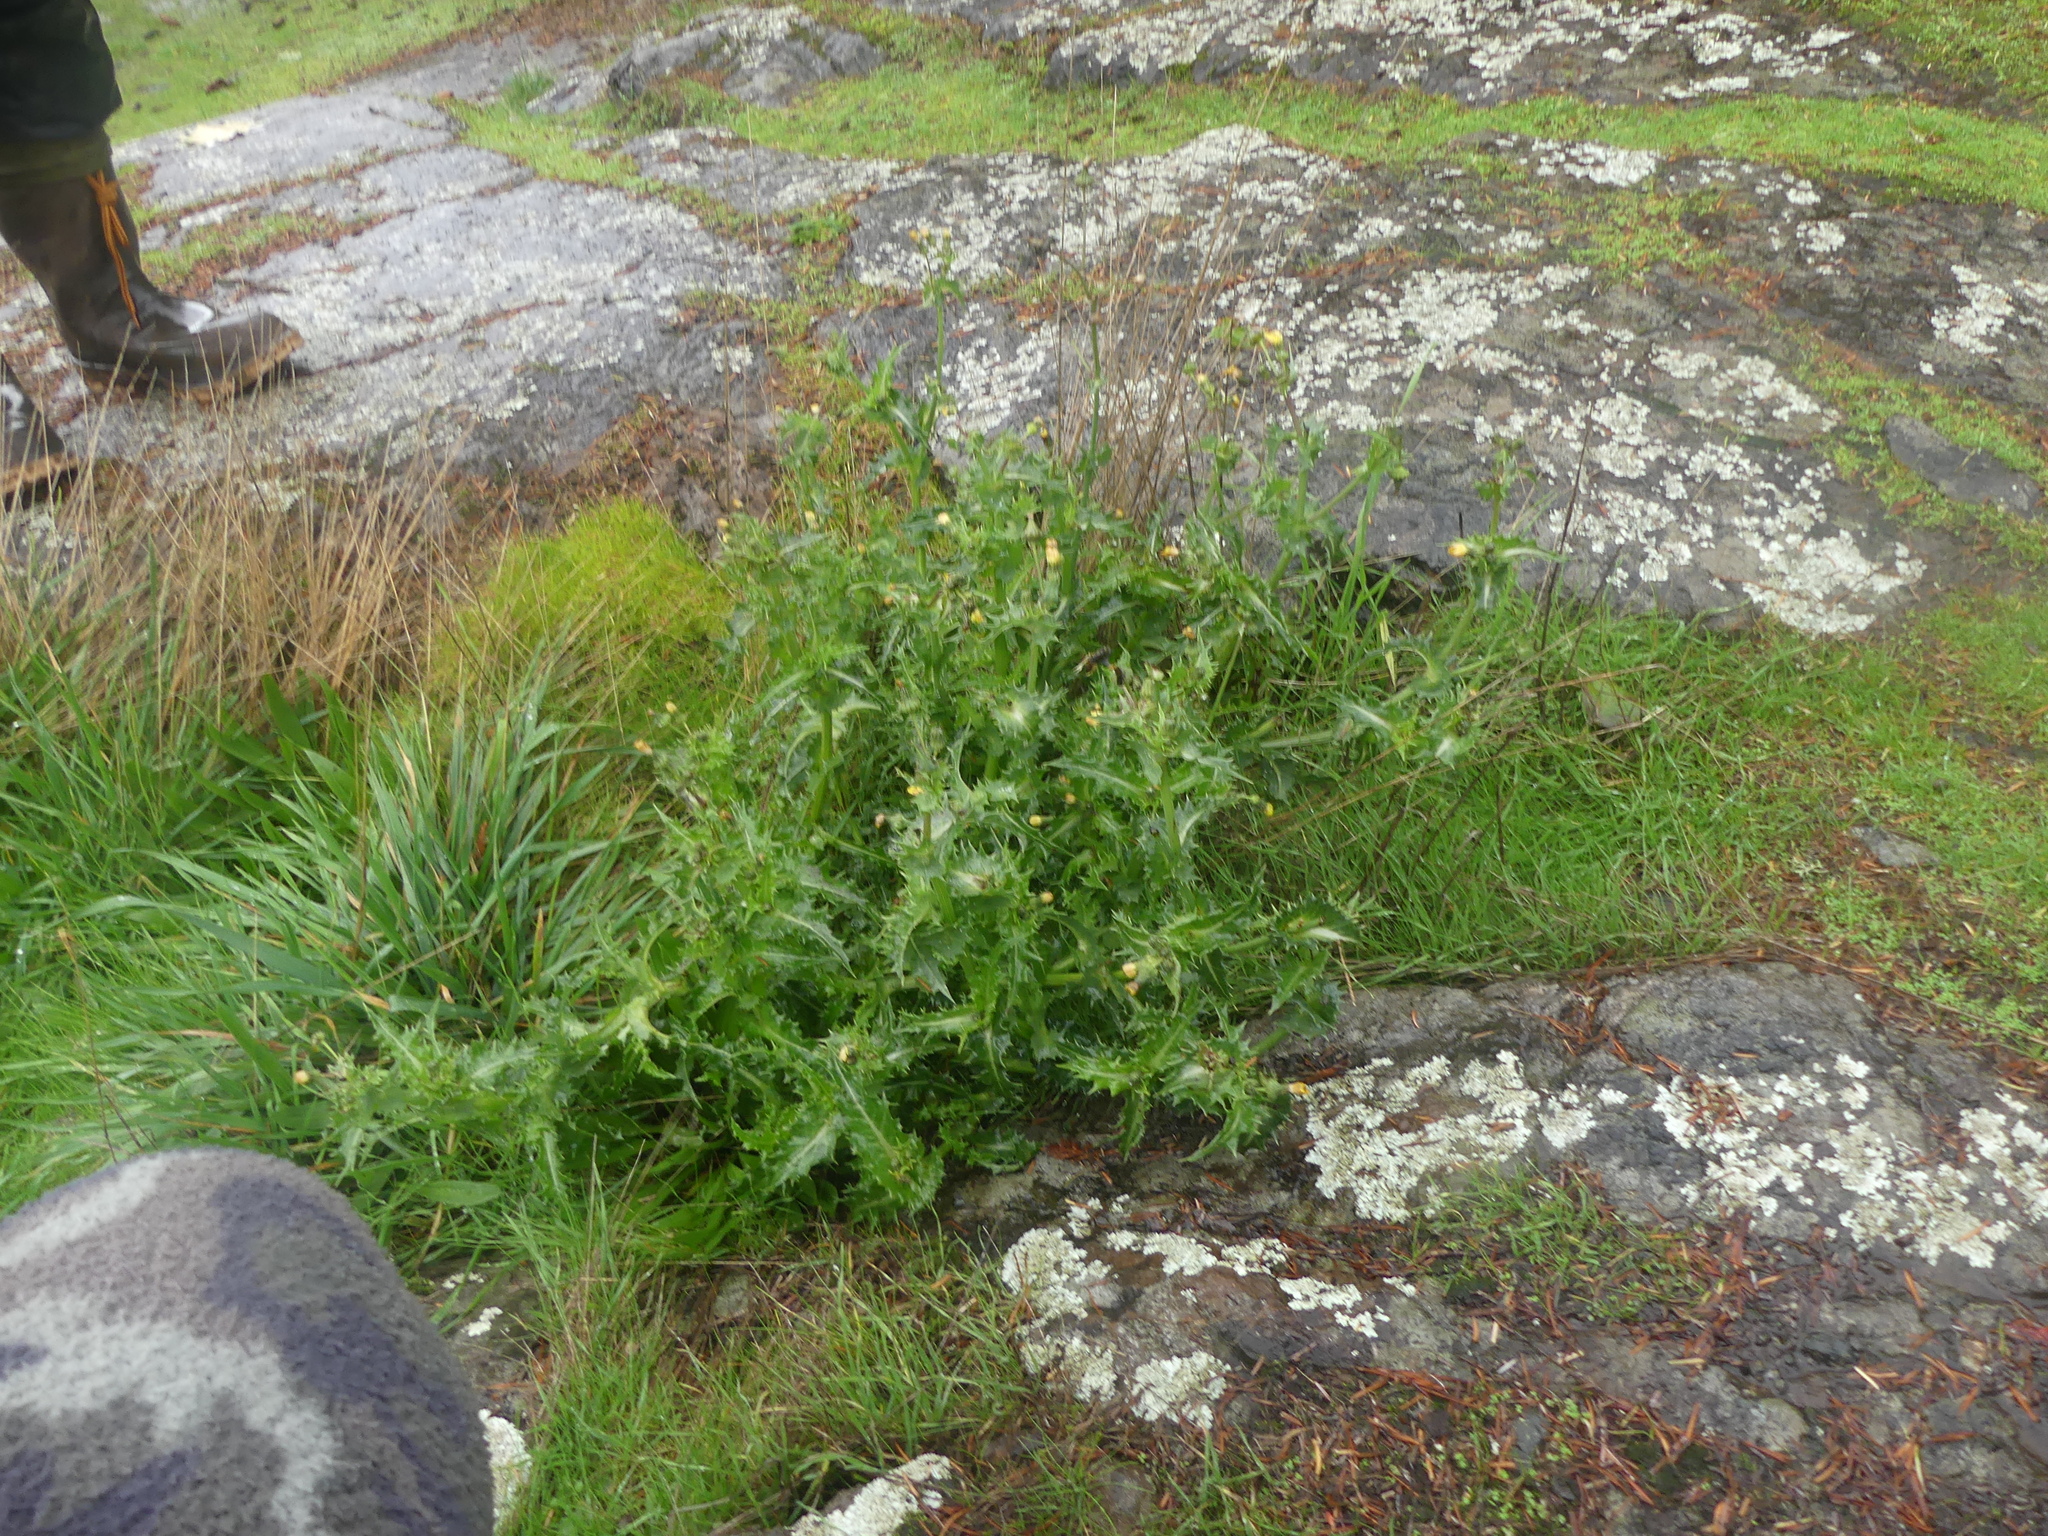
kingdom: Plantae
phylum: Tracheophyta
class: Magnoliopsida
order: Asterales
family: Asteraceae
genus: Sonchus
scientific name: Sonchus asper
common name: Prickly sow-thistle
